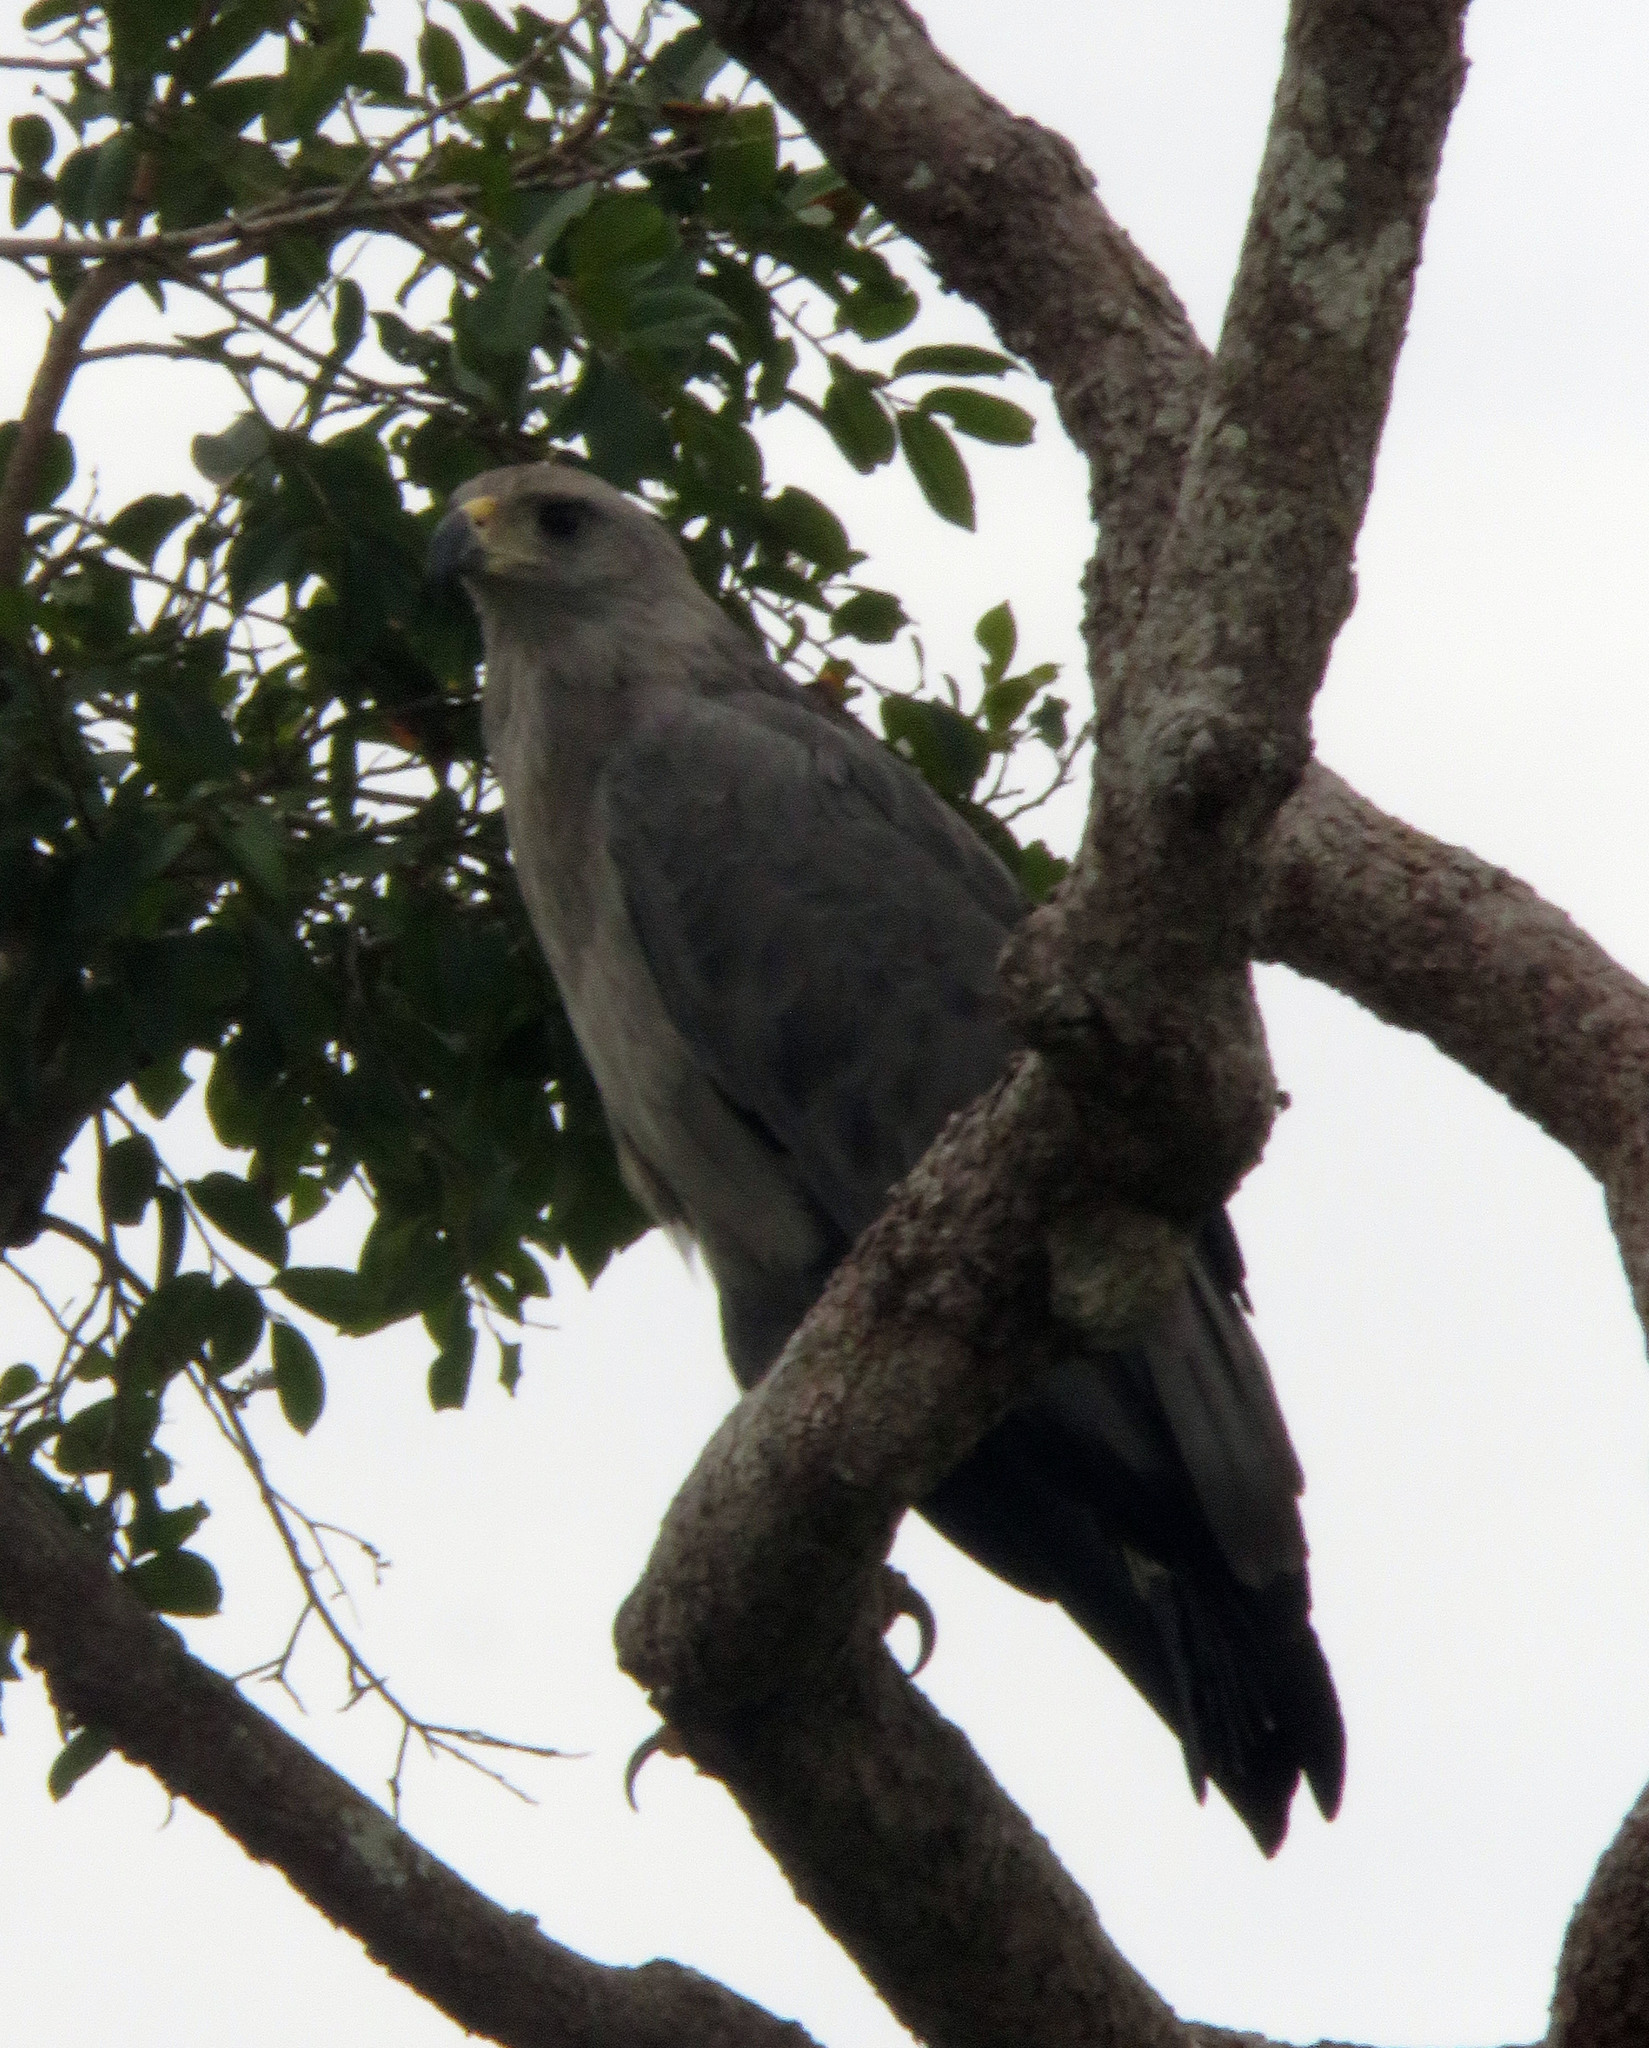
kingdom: Animalia
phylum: Chordata
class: Aves
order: Accipitriformes
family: Accipitridae
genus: Harpyhaliaetus
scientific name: Harpyhaliaetus coronatus
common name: Crowned solitary eagle
